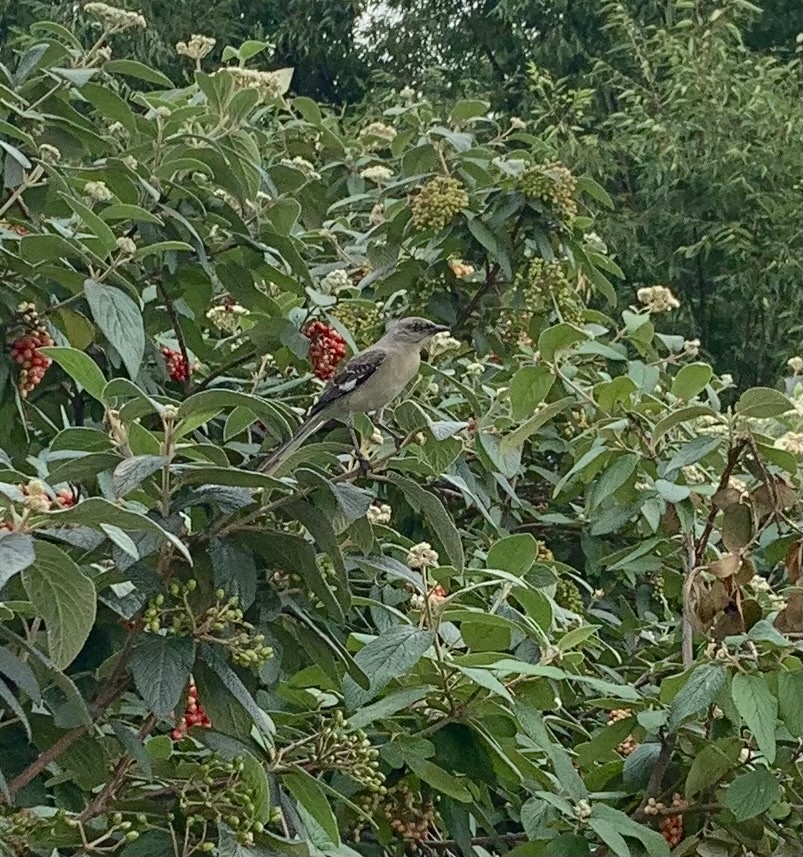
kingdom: Animalia
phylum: Chordata
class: Aves
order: Passeriformes
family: Mimidae
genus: Mimus
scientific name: Mimus polyglottos
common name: Northern mockingbird
